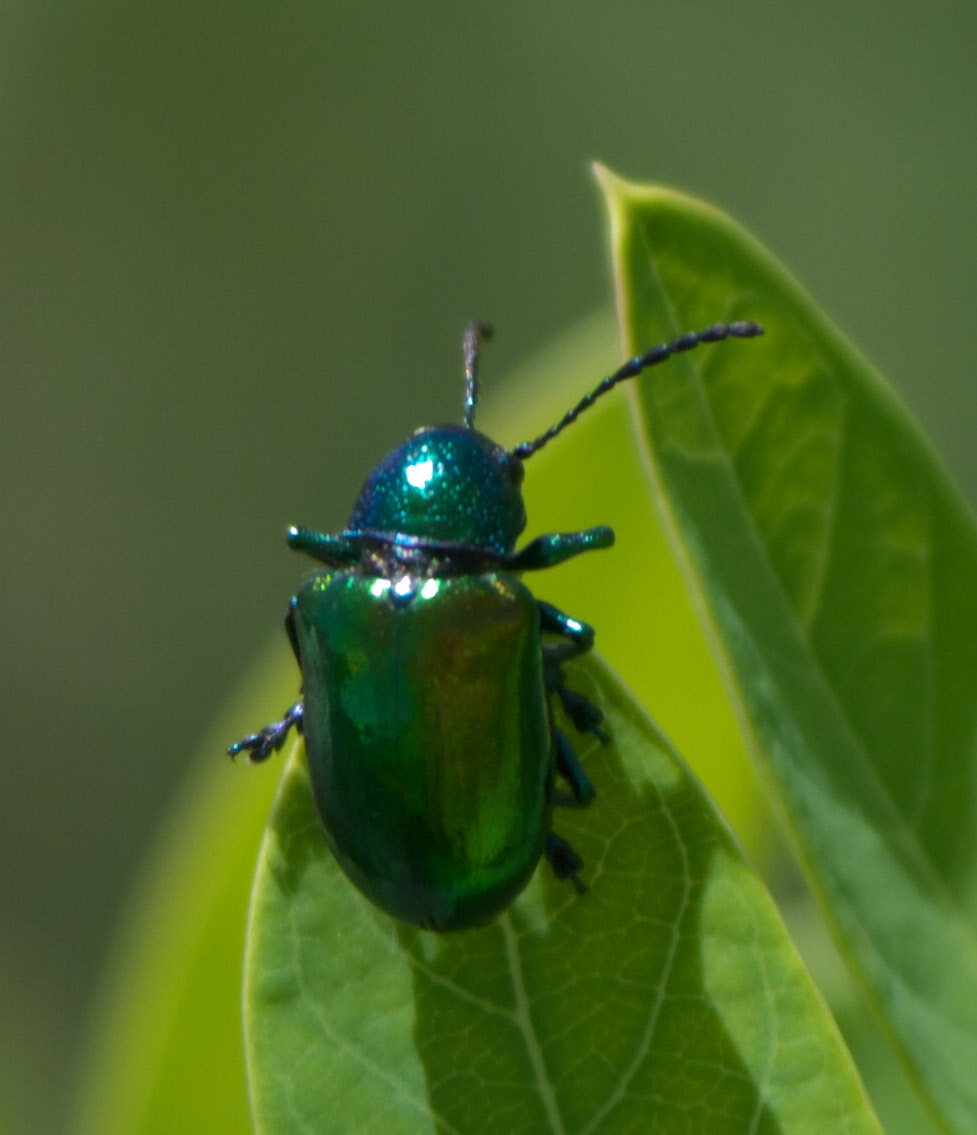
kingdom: Animalia
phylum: Arthropoda
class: Insecta
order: Coleoptera
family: Chrysomelidae
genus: Chrysochus
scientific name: Chrysochus auratus
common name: Dogbane leaf beetle
